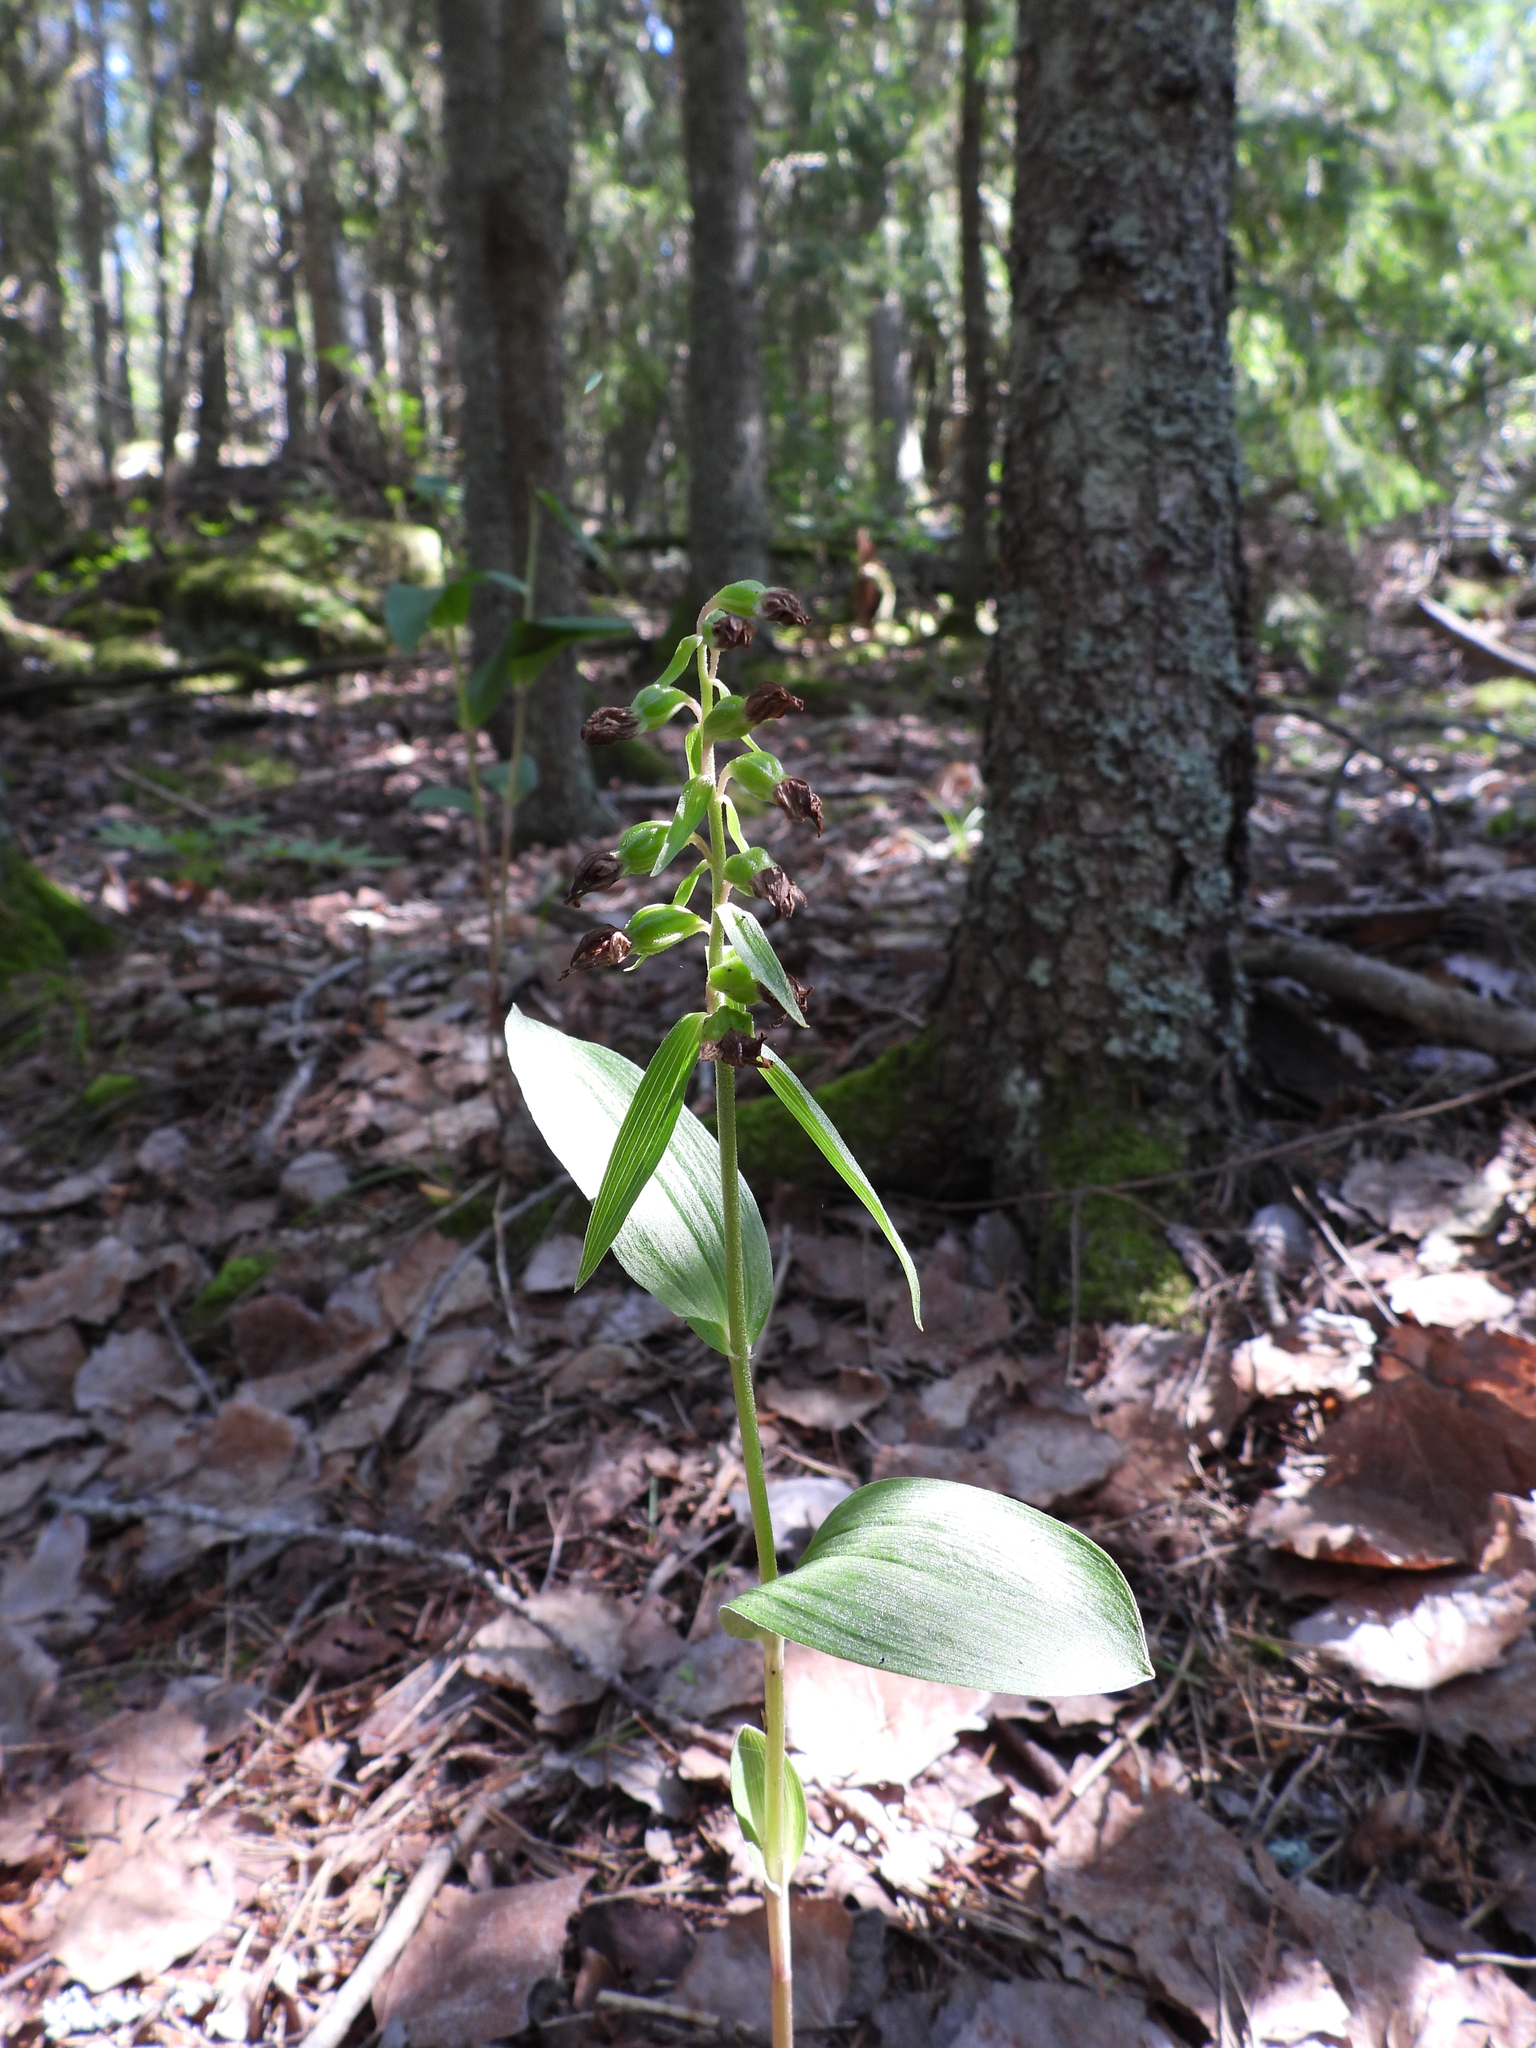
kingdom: Plantae
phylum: Tracheophyta
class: Liliopsida
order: Asparagales
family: Orchidaceae
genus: Epipactis
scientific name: Epipactis helleborine
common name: Broad-leaved helleborine
